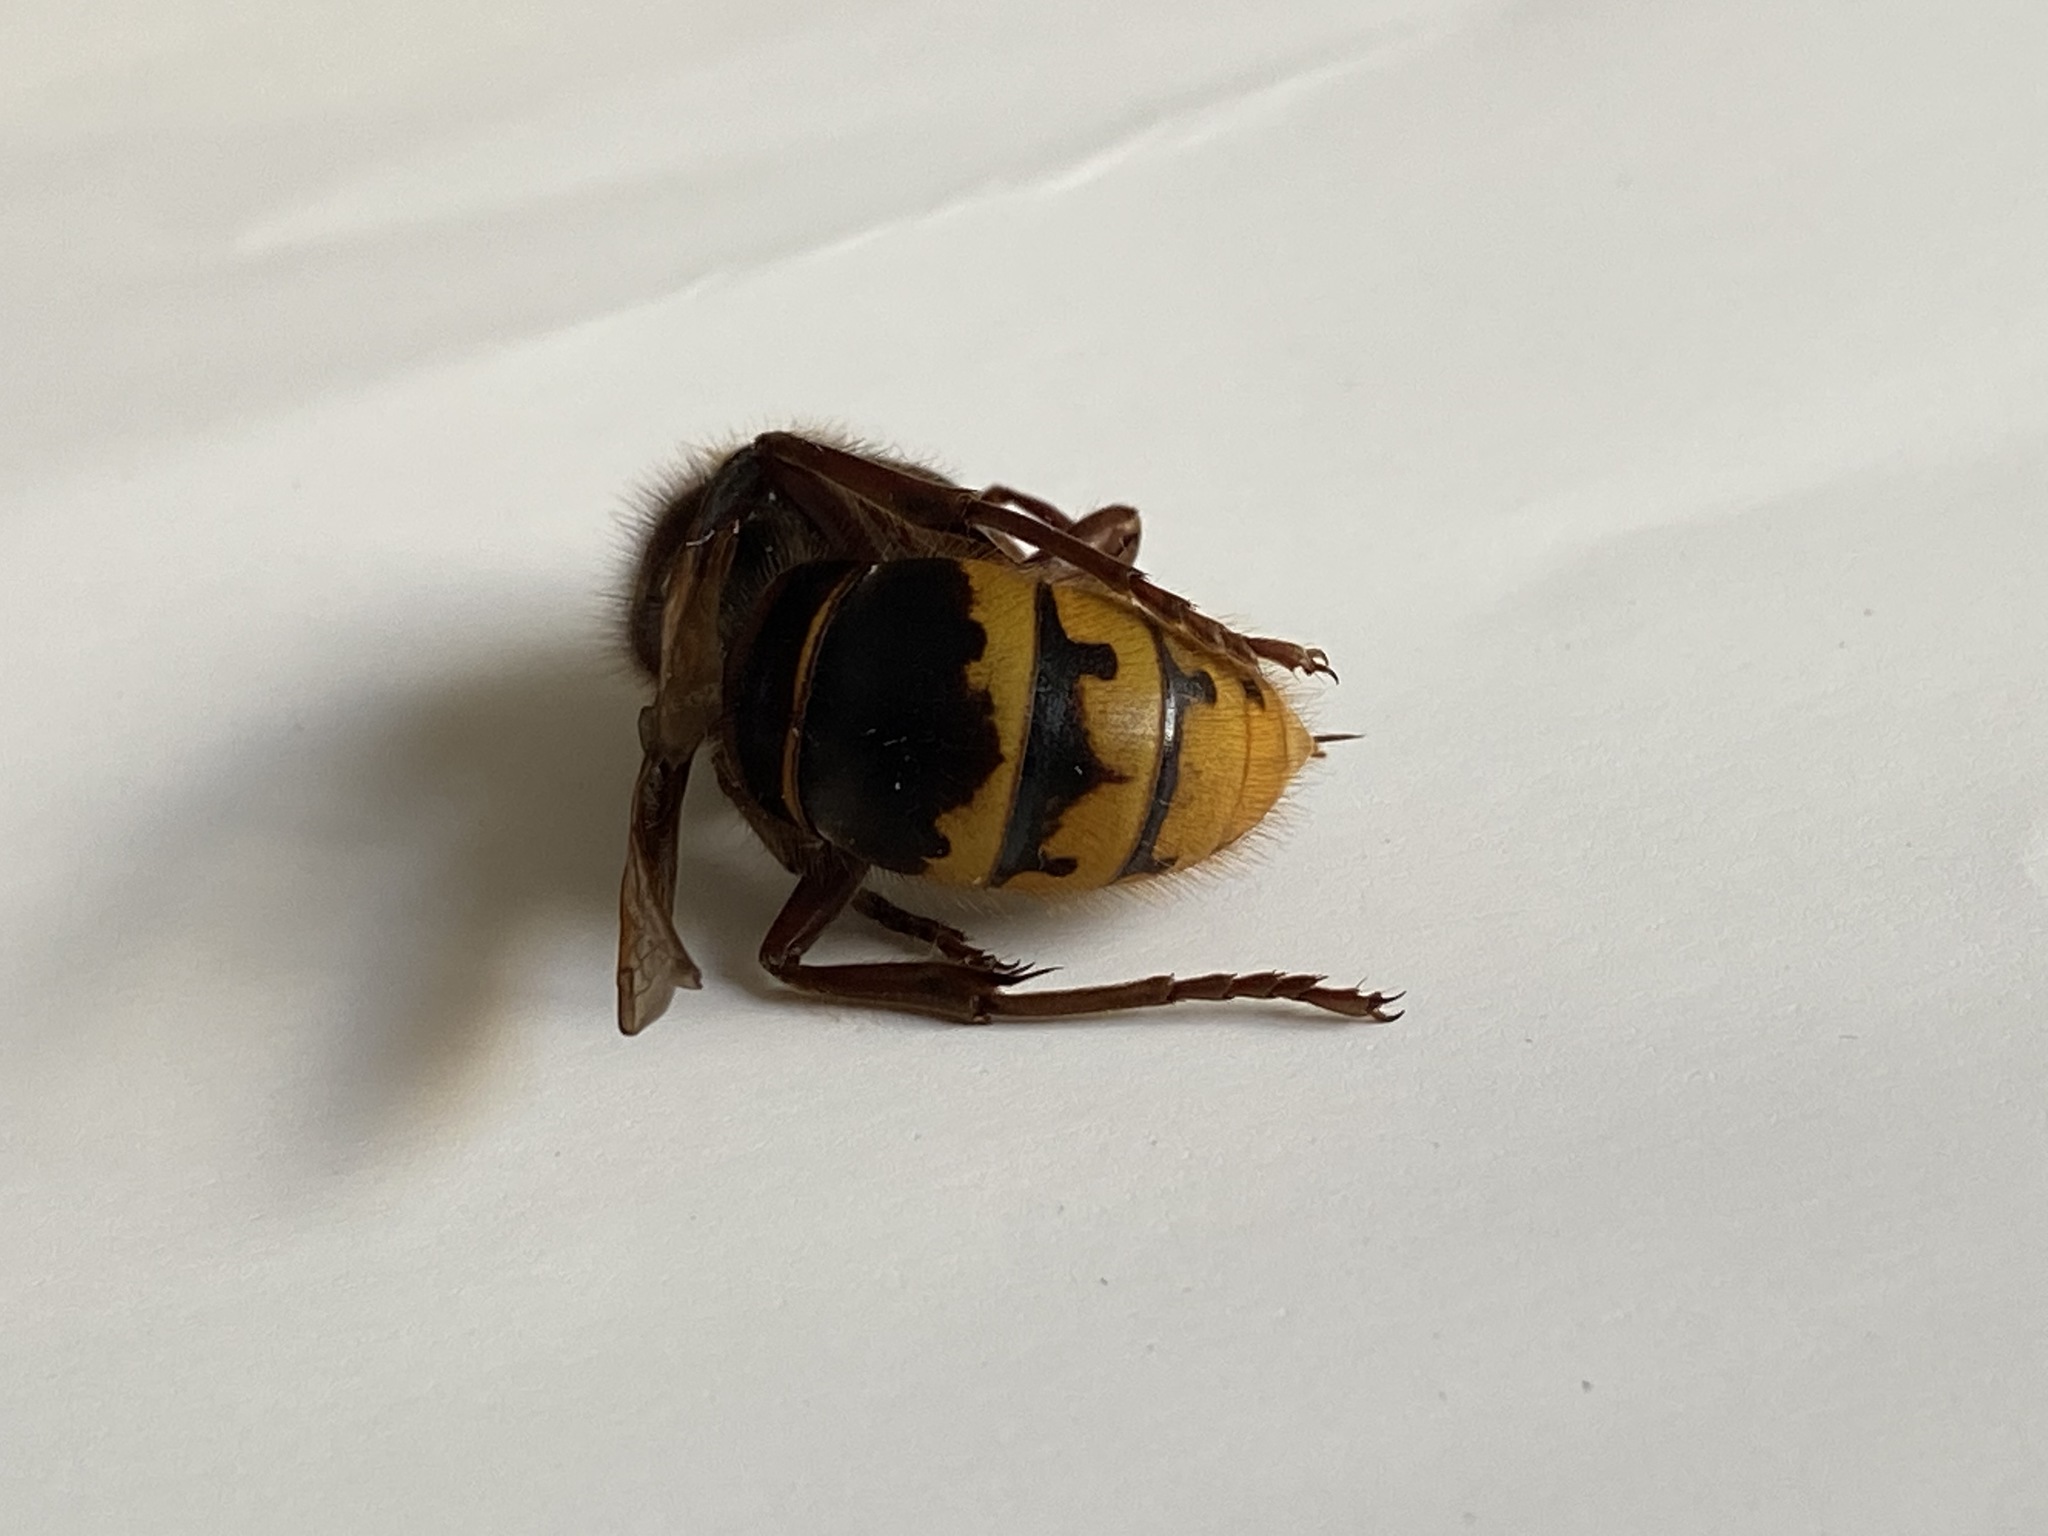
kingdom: Animalia
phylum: Arthropoda
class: Insecta
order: Hymenoptera
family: Vespidae
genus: Vespa
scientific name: Vespa crabro
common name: Hornet
